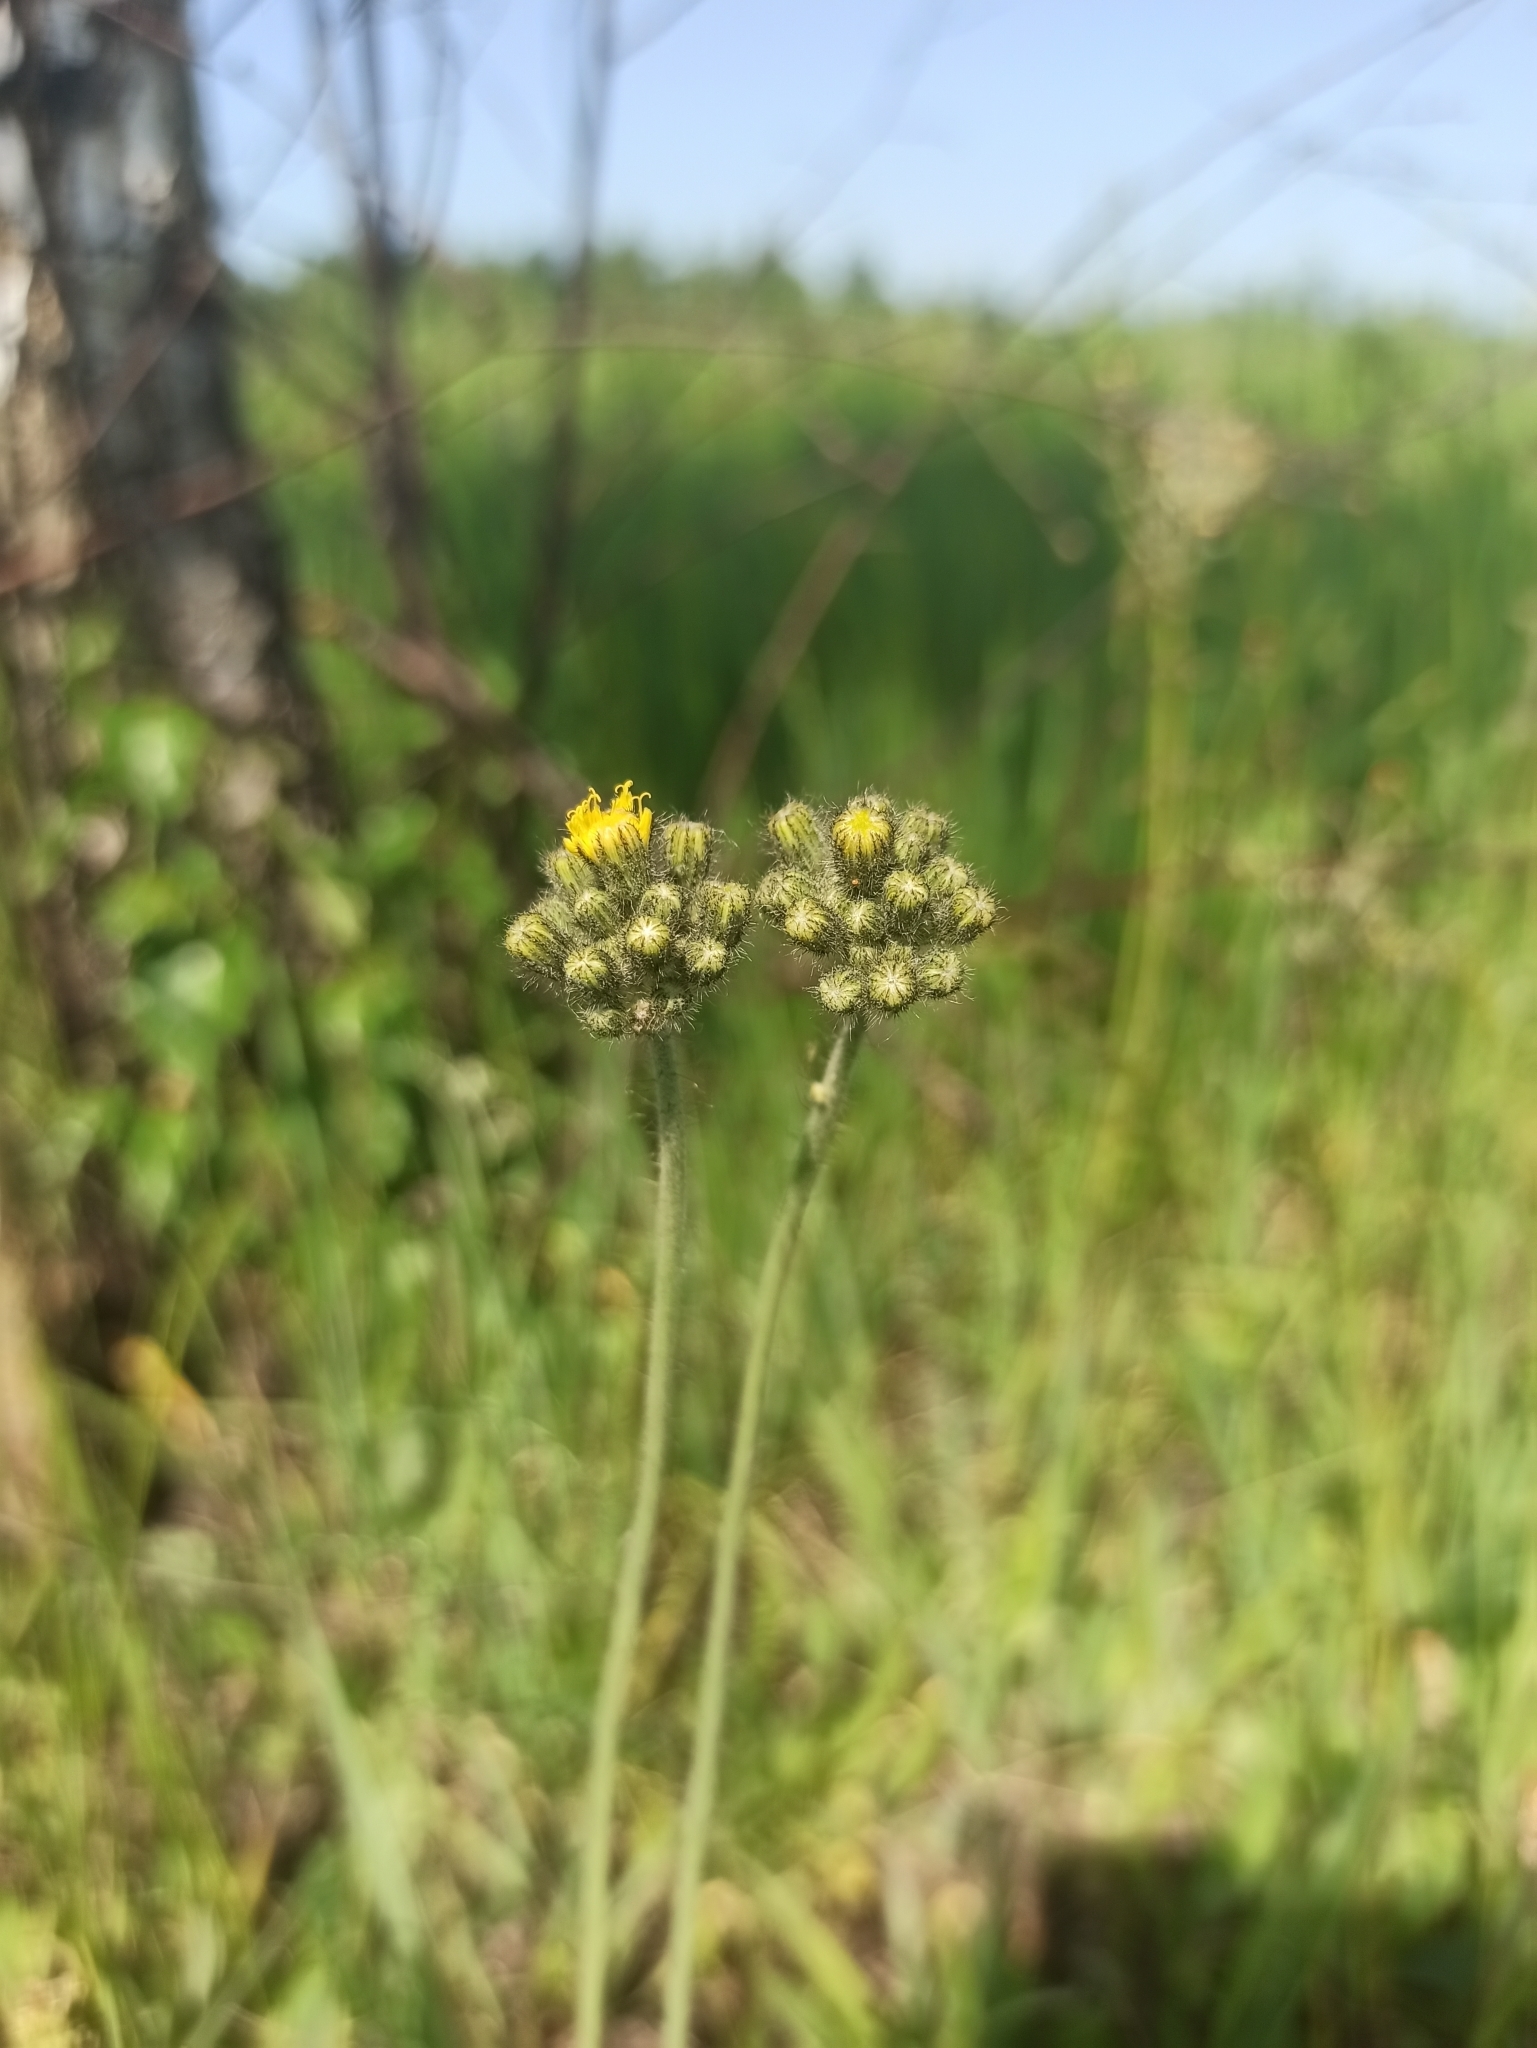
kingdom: Plantae
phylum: Tracheophyta
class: Magnoliopsida
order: Asterales
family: Asteraceae
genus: Pilosella
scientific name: Pilosella
